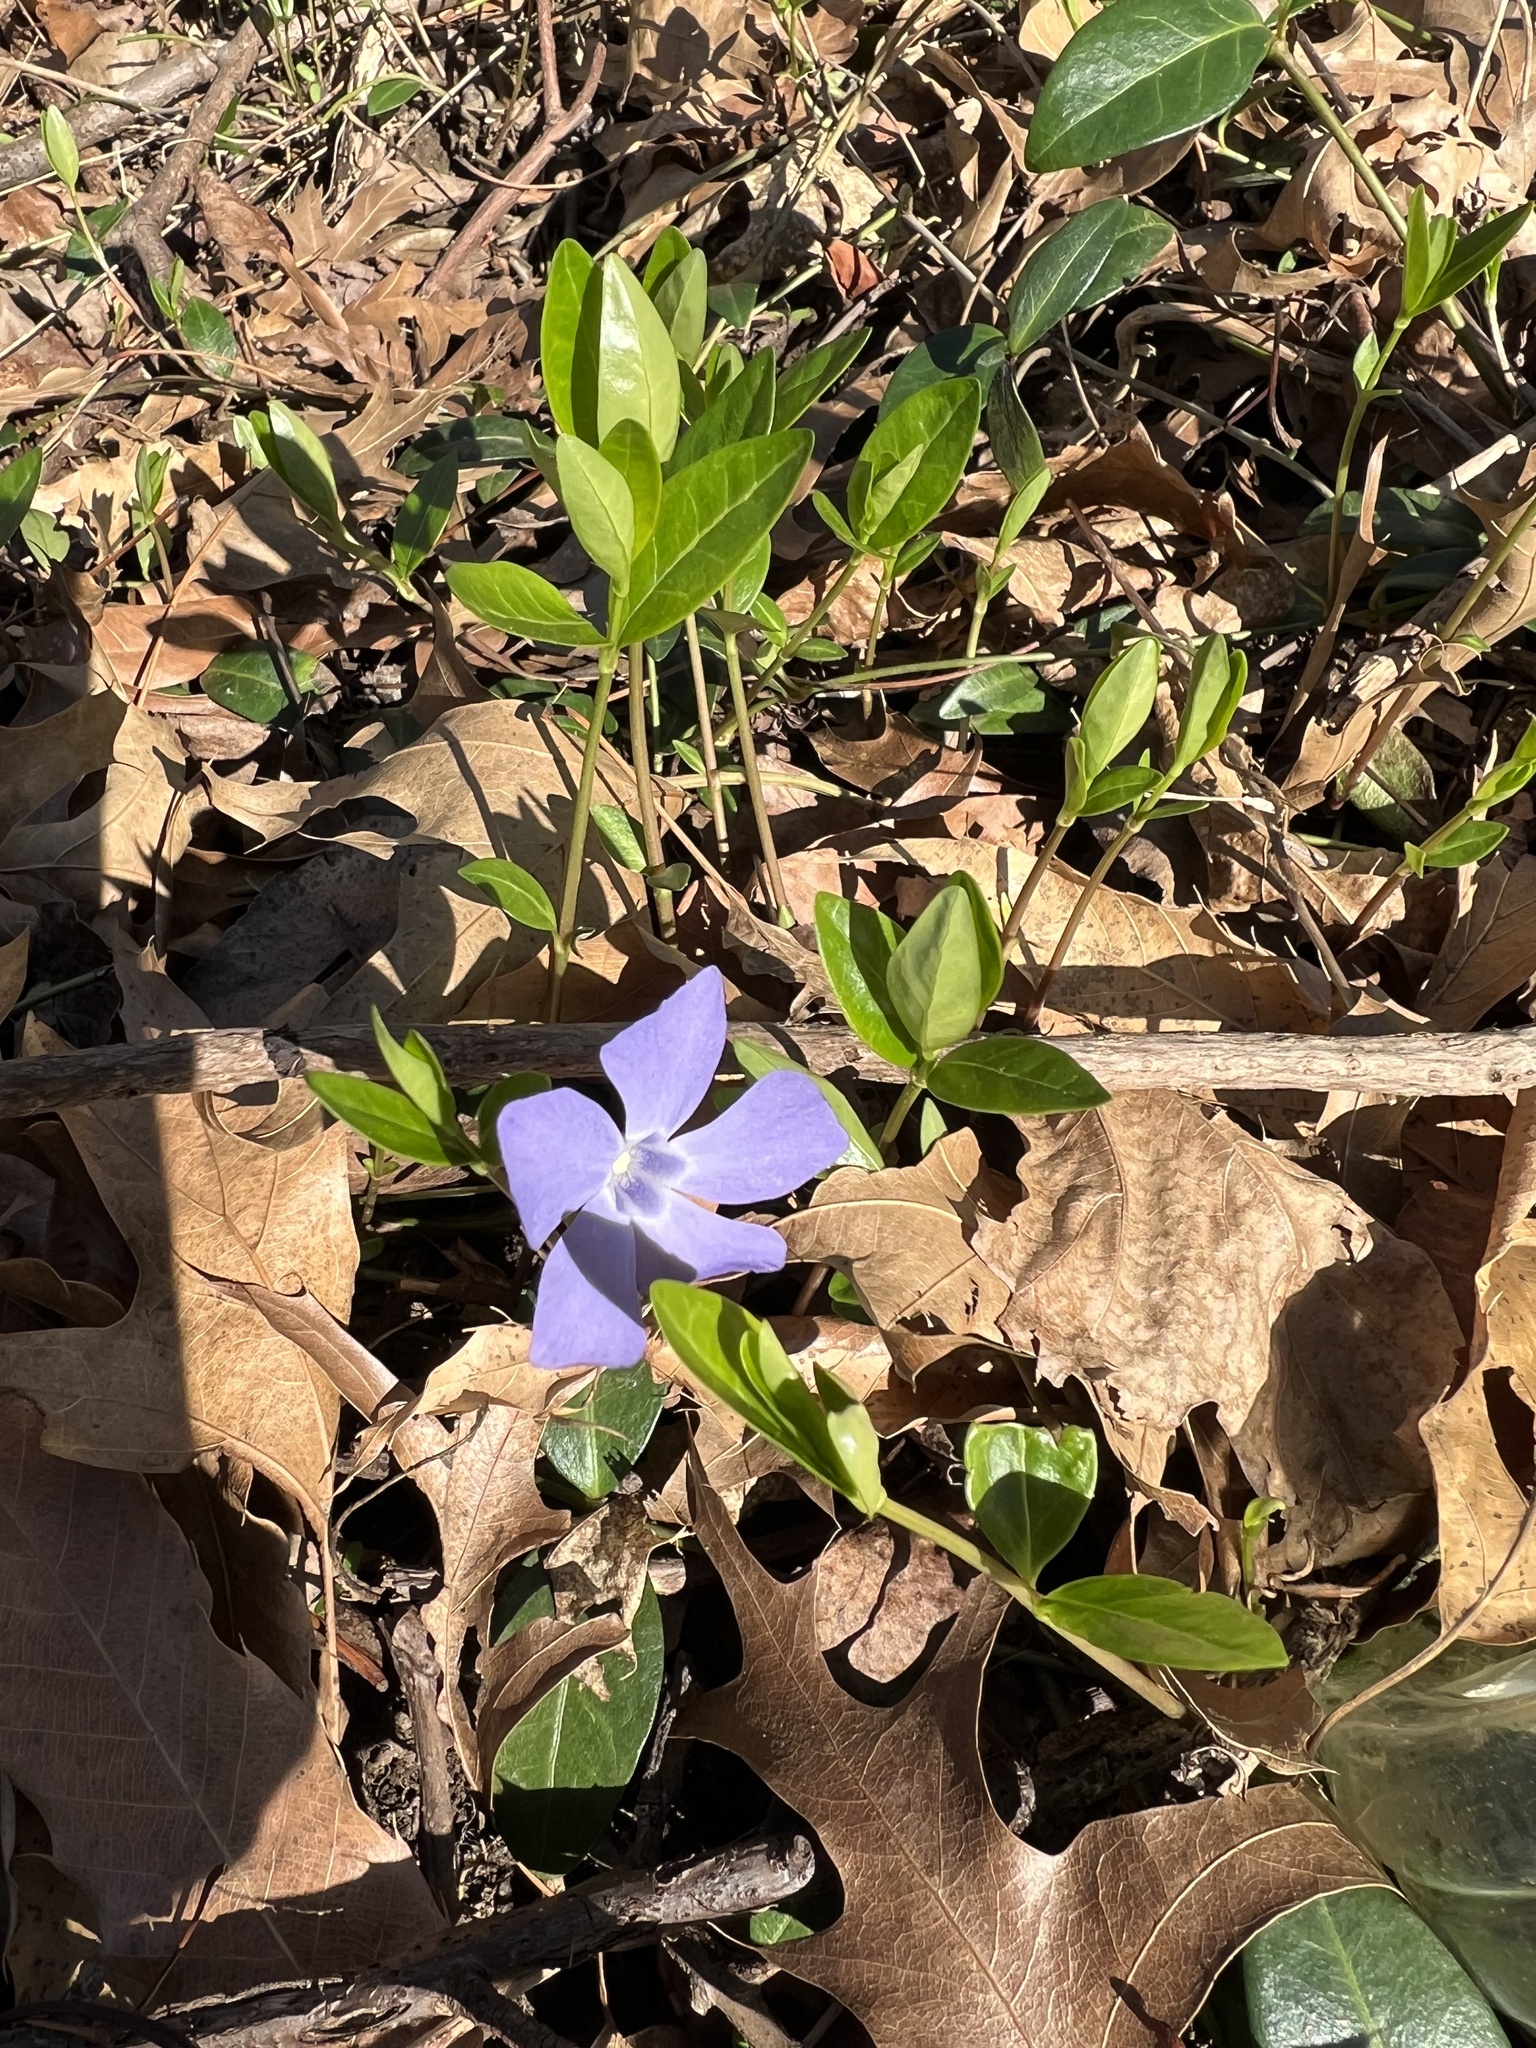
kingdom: Plantae
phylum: Tracheophyta
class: Magnoliopsida
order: Gentianales
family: Apocynaceae
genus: Vinca
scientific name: Vinca minor
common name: Lesser periwinkle
